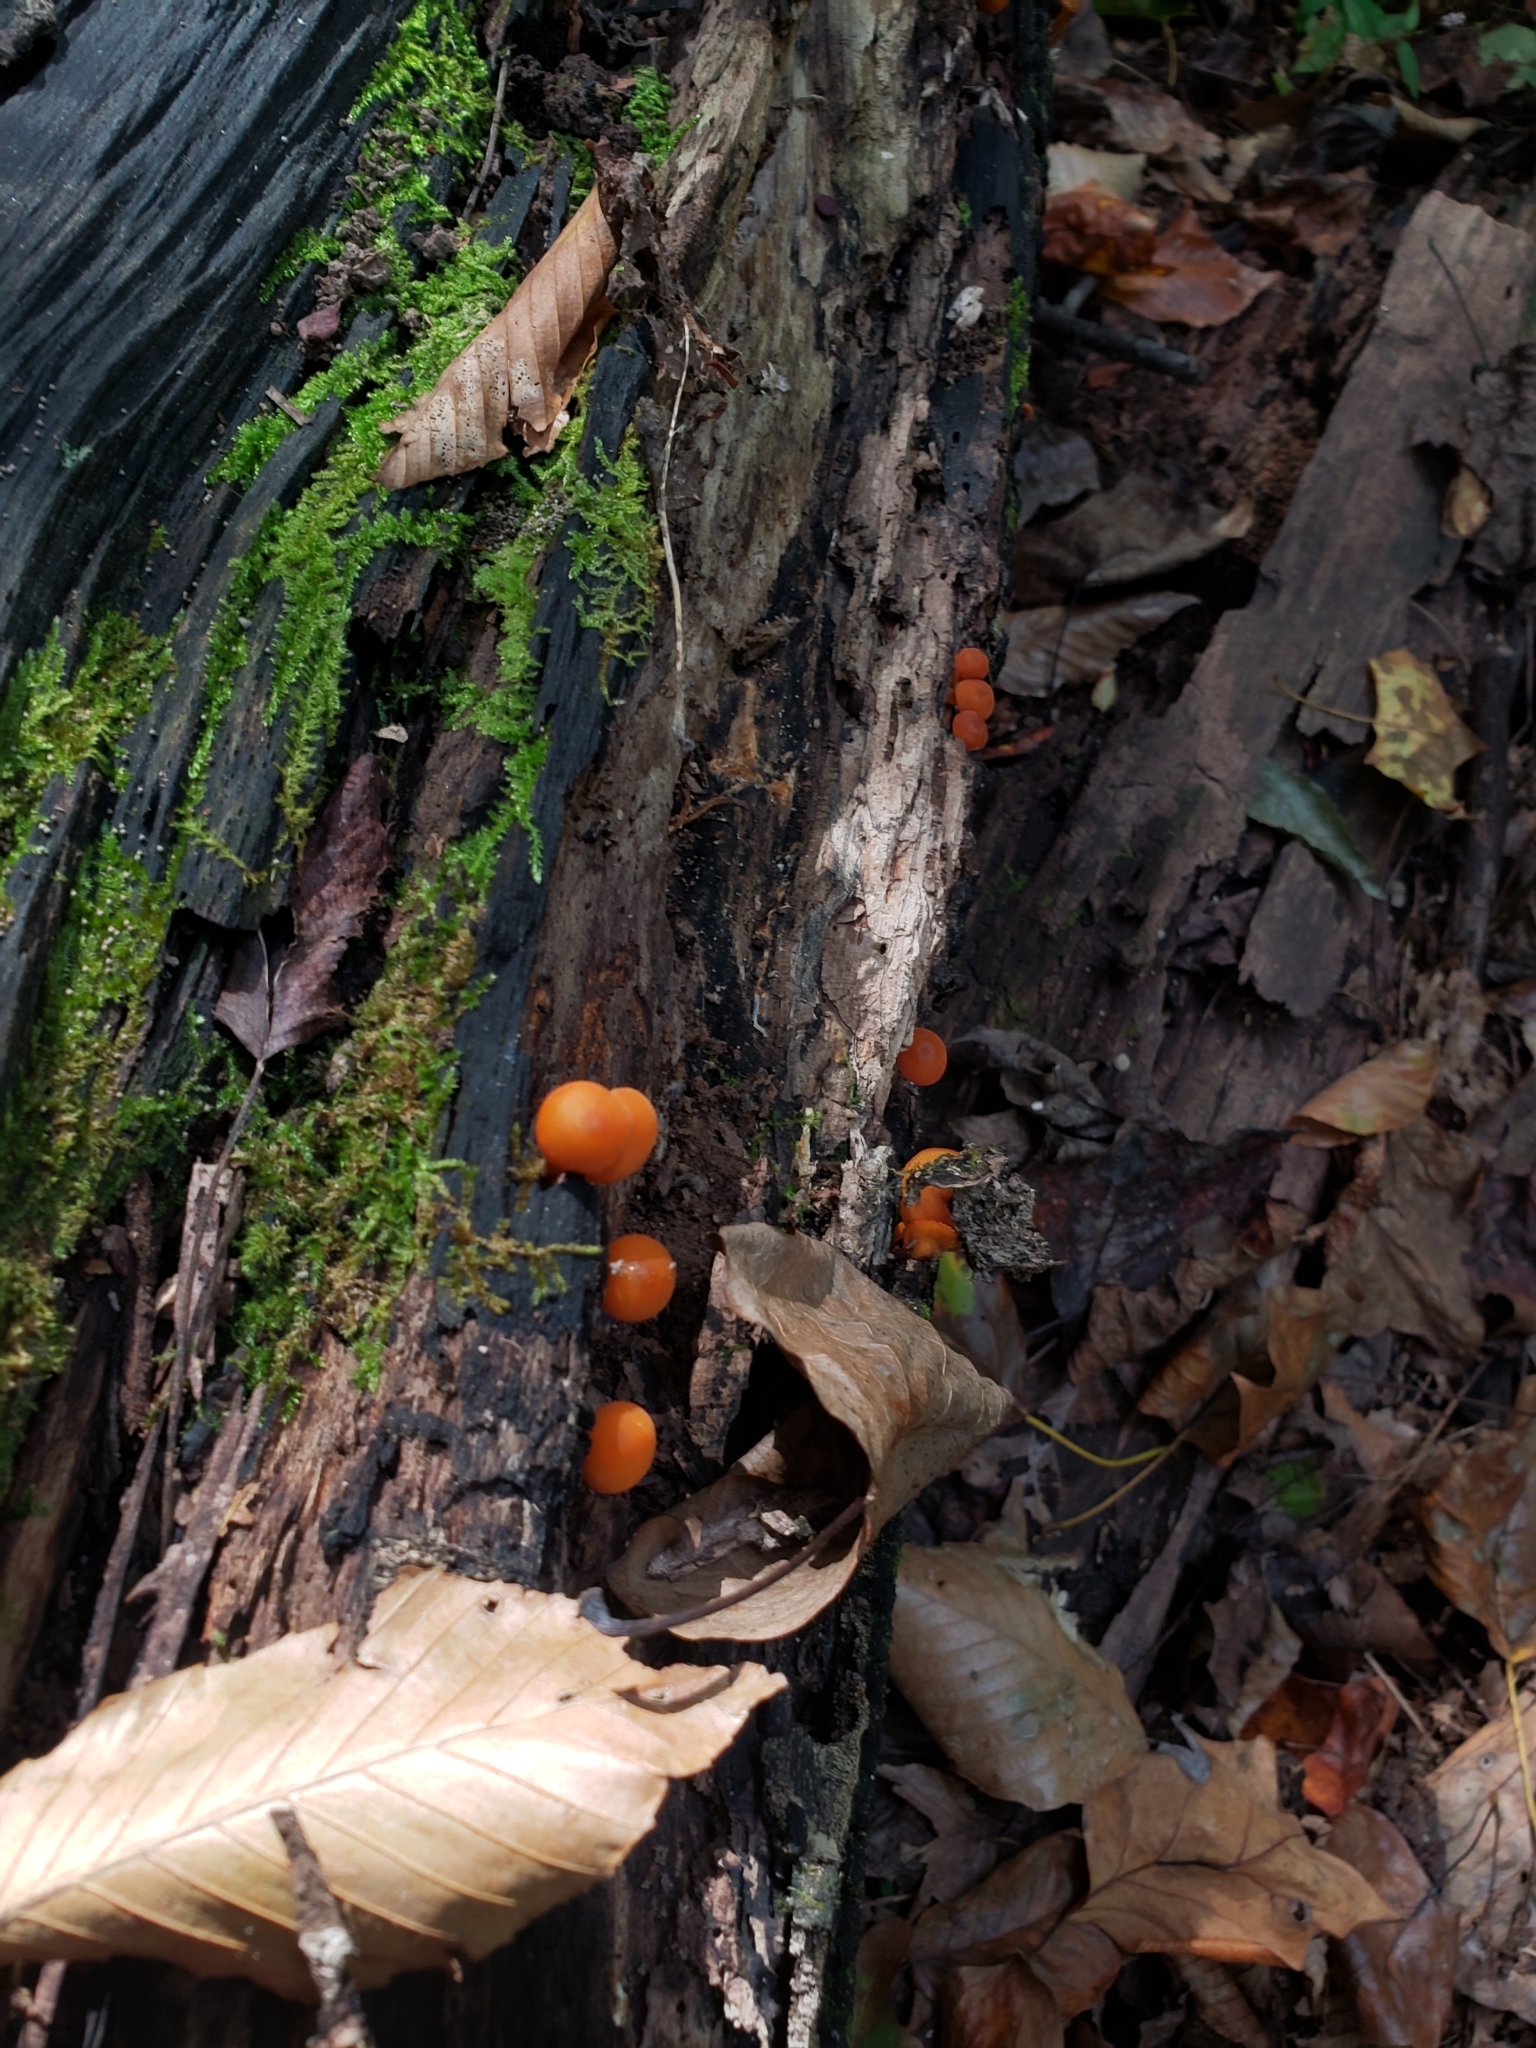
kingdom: Fungi
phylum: Basidiomycota
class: Agaricomycetes
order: Agaricales
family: Mycenaceae
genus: Mycena
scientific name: Mycena leaiana
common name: Orange mycena
